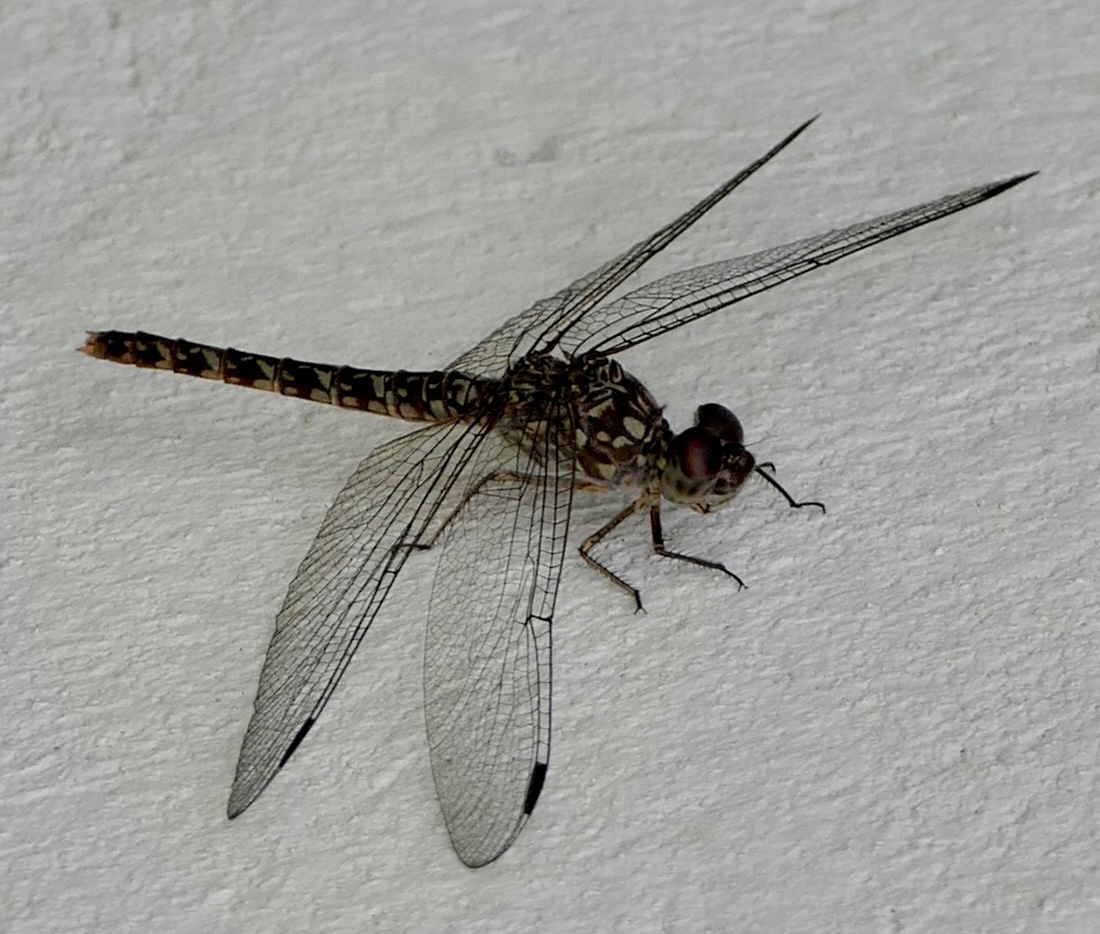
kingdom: Animalia
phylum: Arthropoda
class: Insecta
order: Odonata
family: Libellulidae
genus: Bradinopyga
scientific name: Bradinopyga strachani
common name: Red rock-dweller
